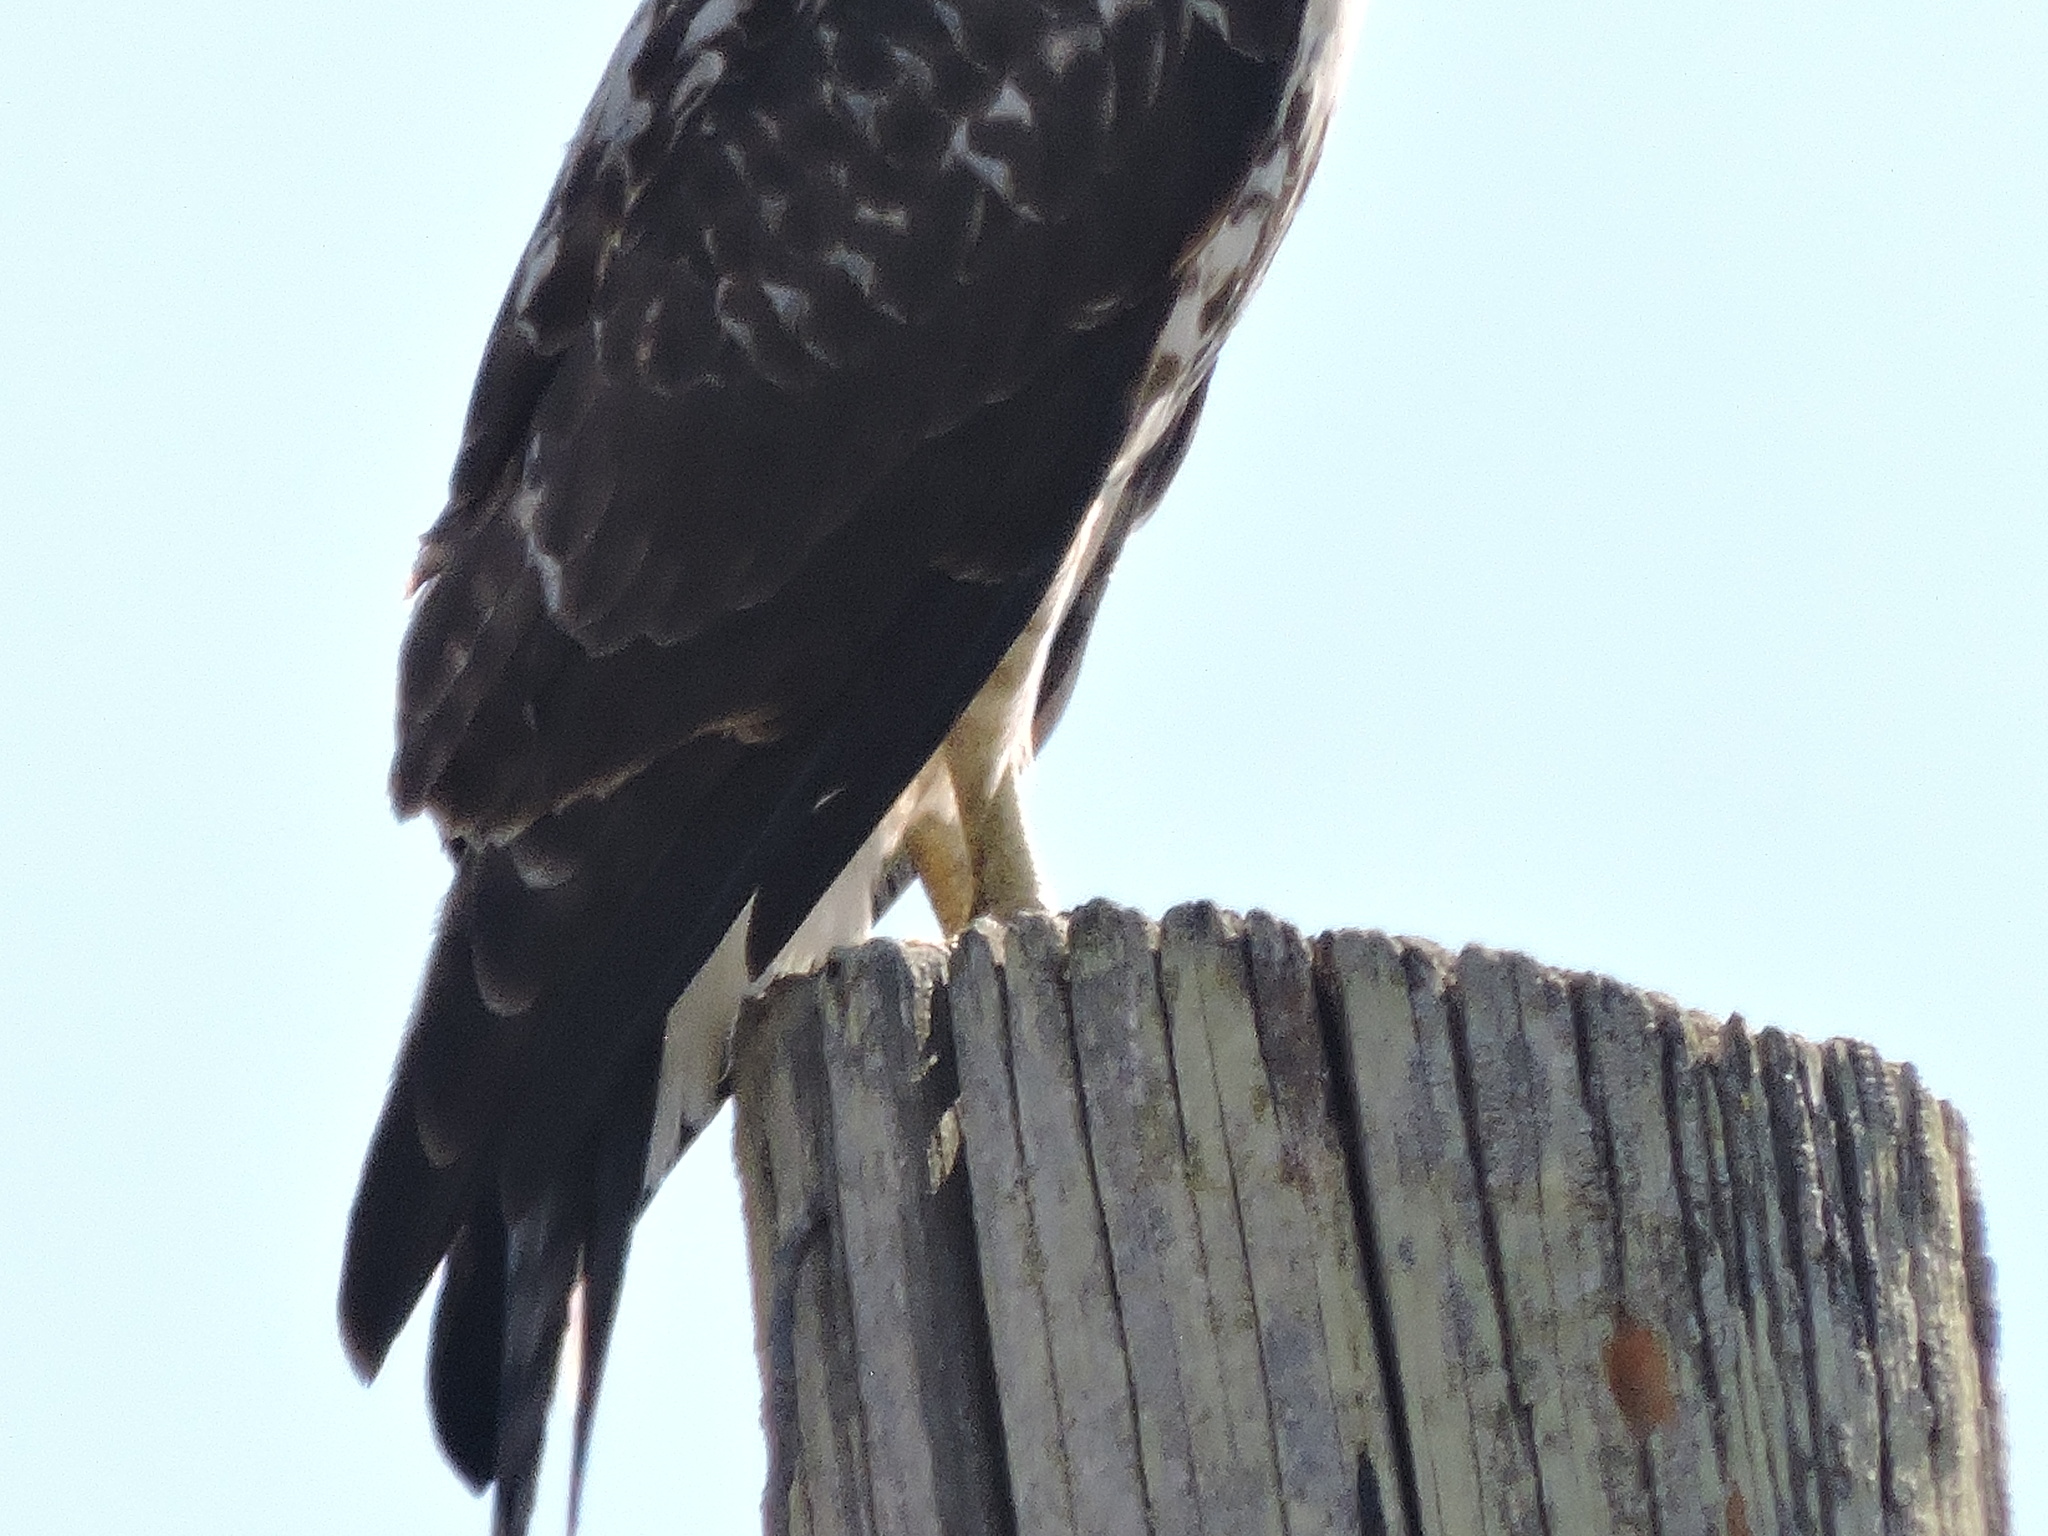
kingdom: Animalia
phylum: Chordata
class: Aves
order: Accipitriformes
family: Accipitridae
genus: Buteo
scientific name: Buteo jamaicensis
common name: Red-tailed hawk
